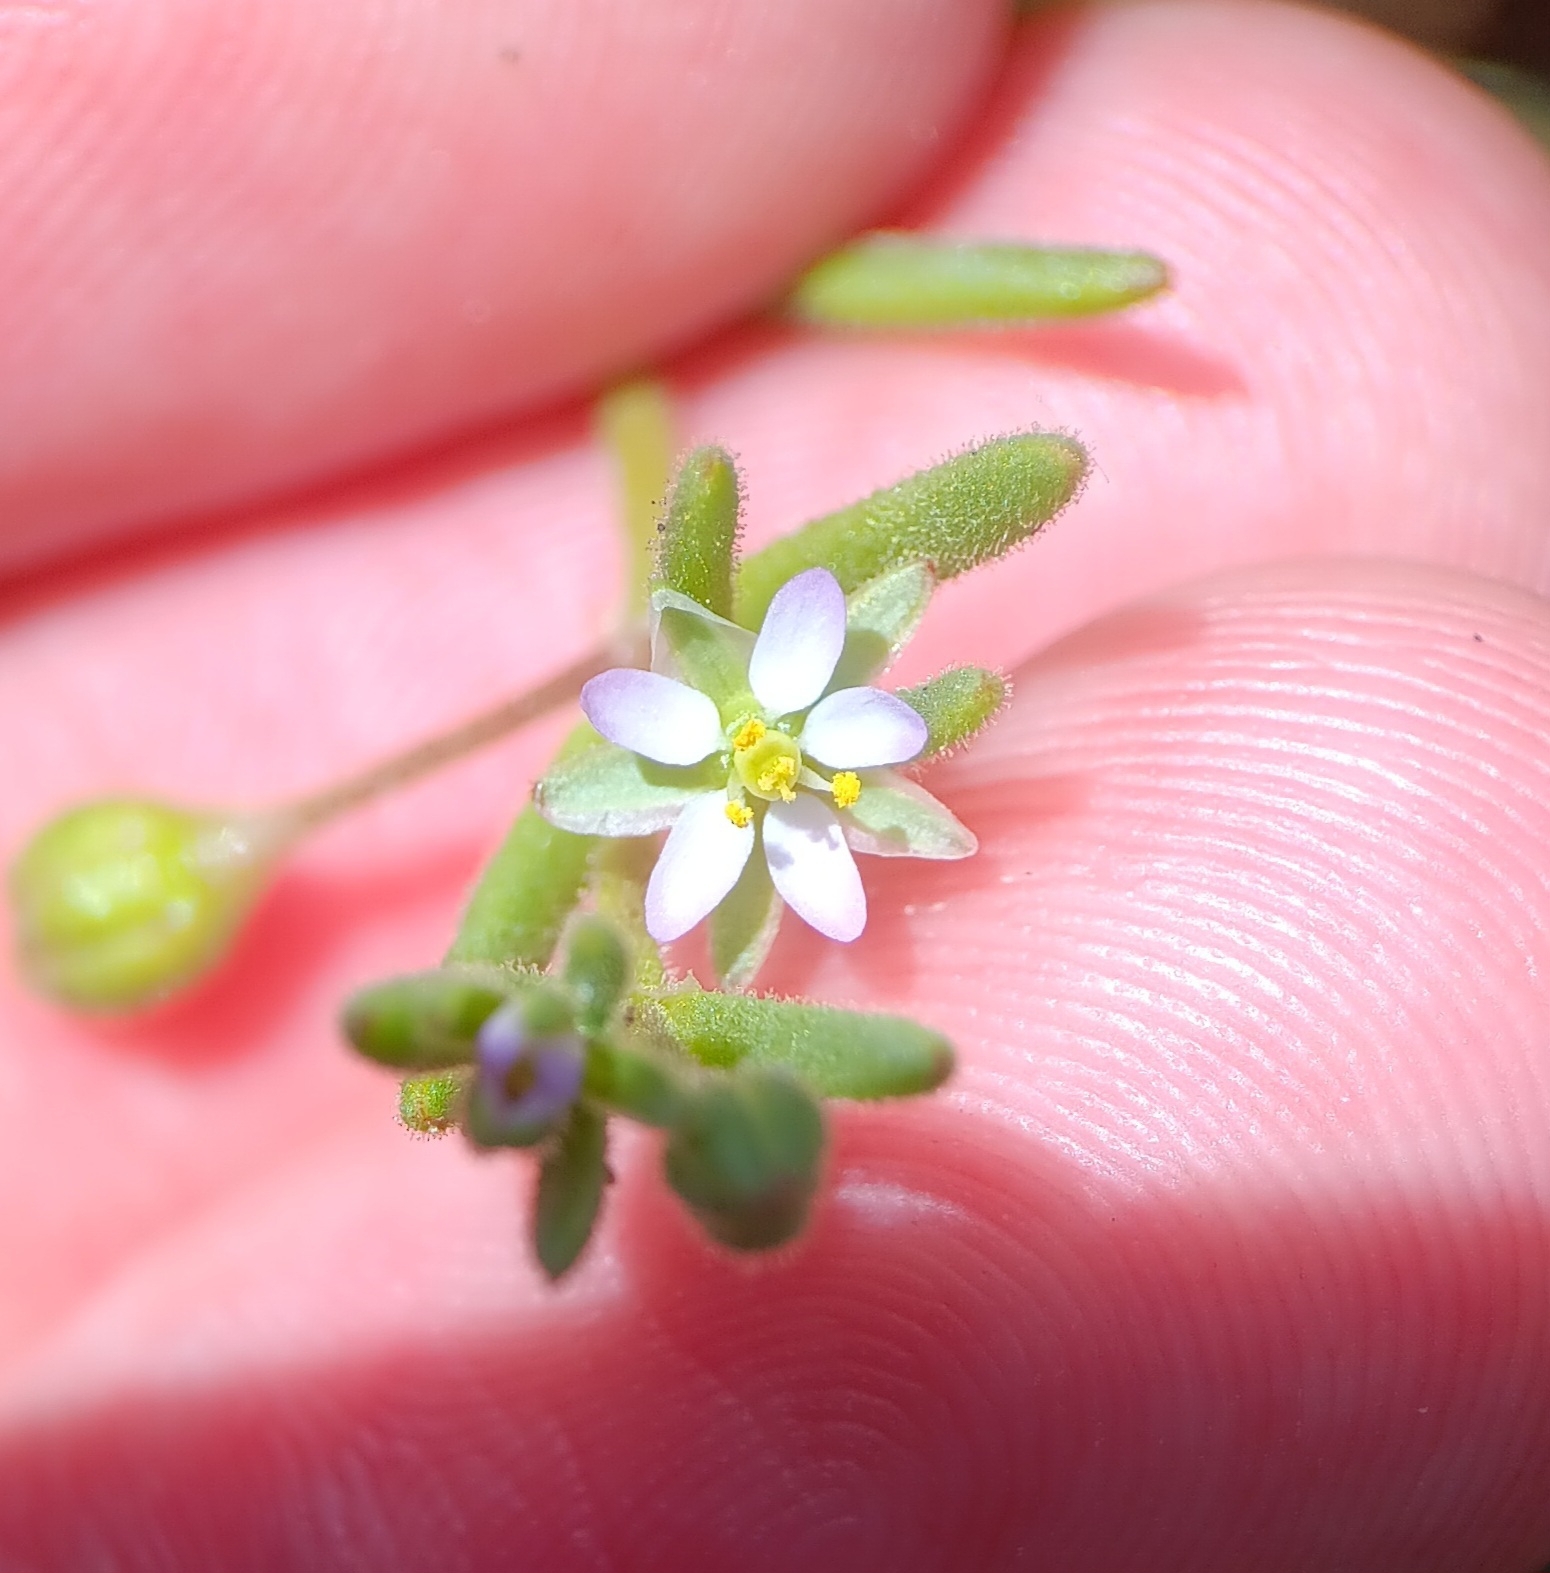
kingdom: Plantae
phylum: Tracheophyta
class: Magnoliopsida
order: Caryophyllales
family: Caryophyllaceae
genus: Spergularia
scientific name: Spergularia marina
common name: Lesser sea-spurrey
